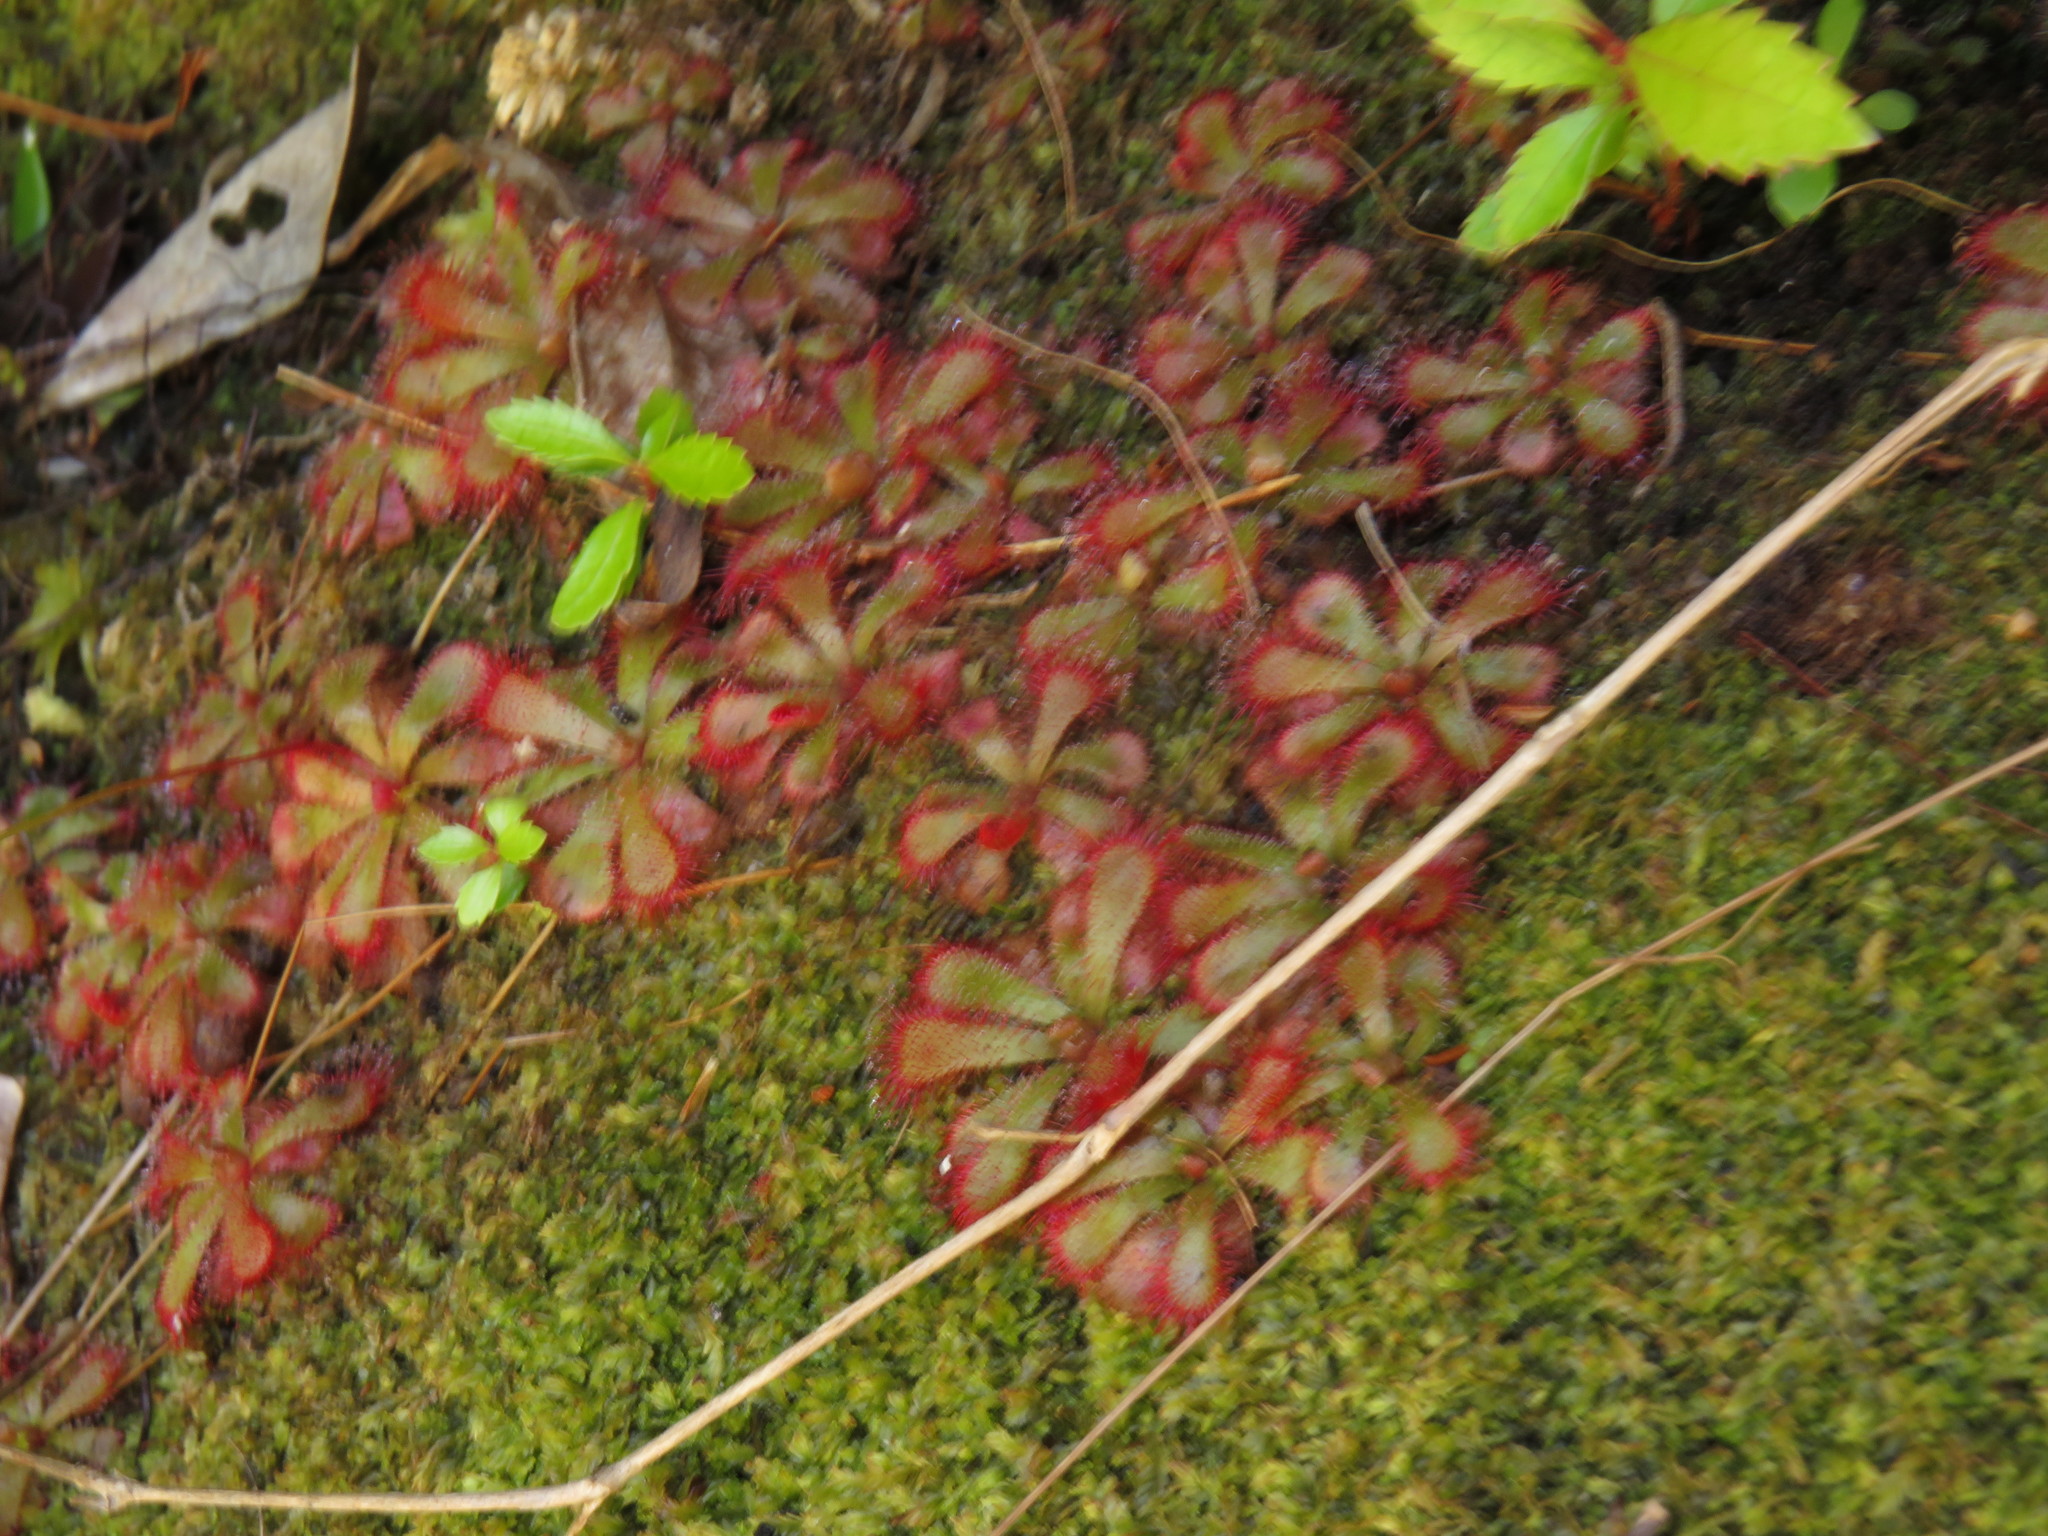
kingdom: Plantae
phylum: Tracheophyta
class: Magnoliopsida
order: Caryophyllales
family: Droseraceae
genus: Drosera
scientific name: Drosera aliciae
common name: Alice sundew
